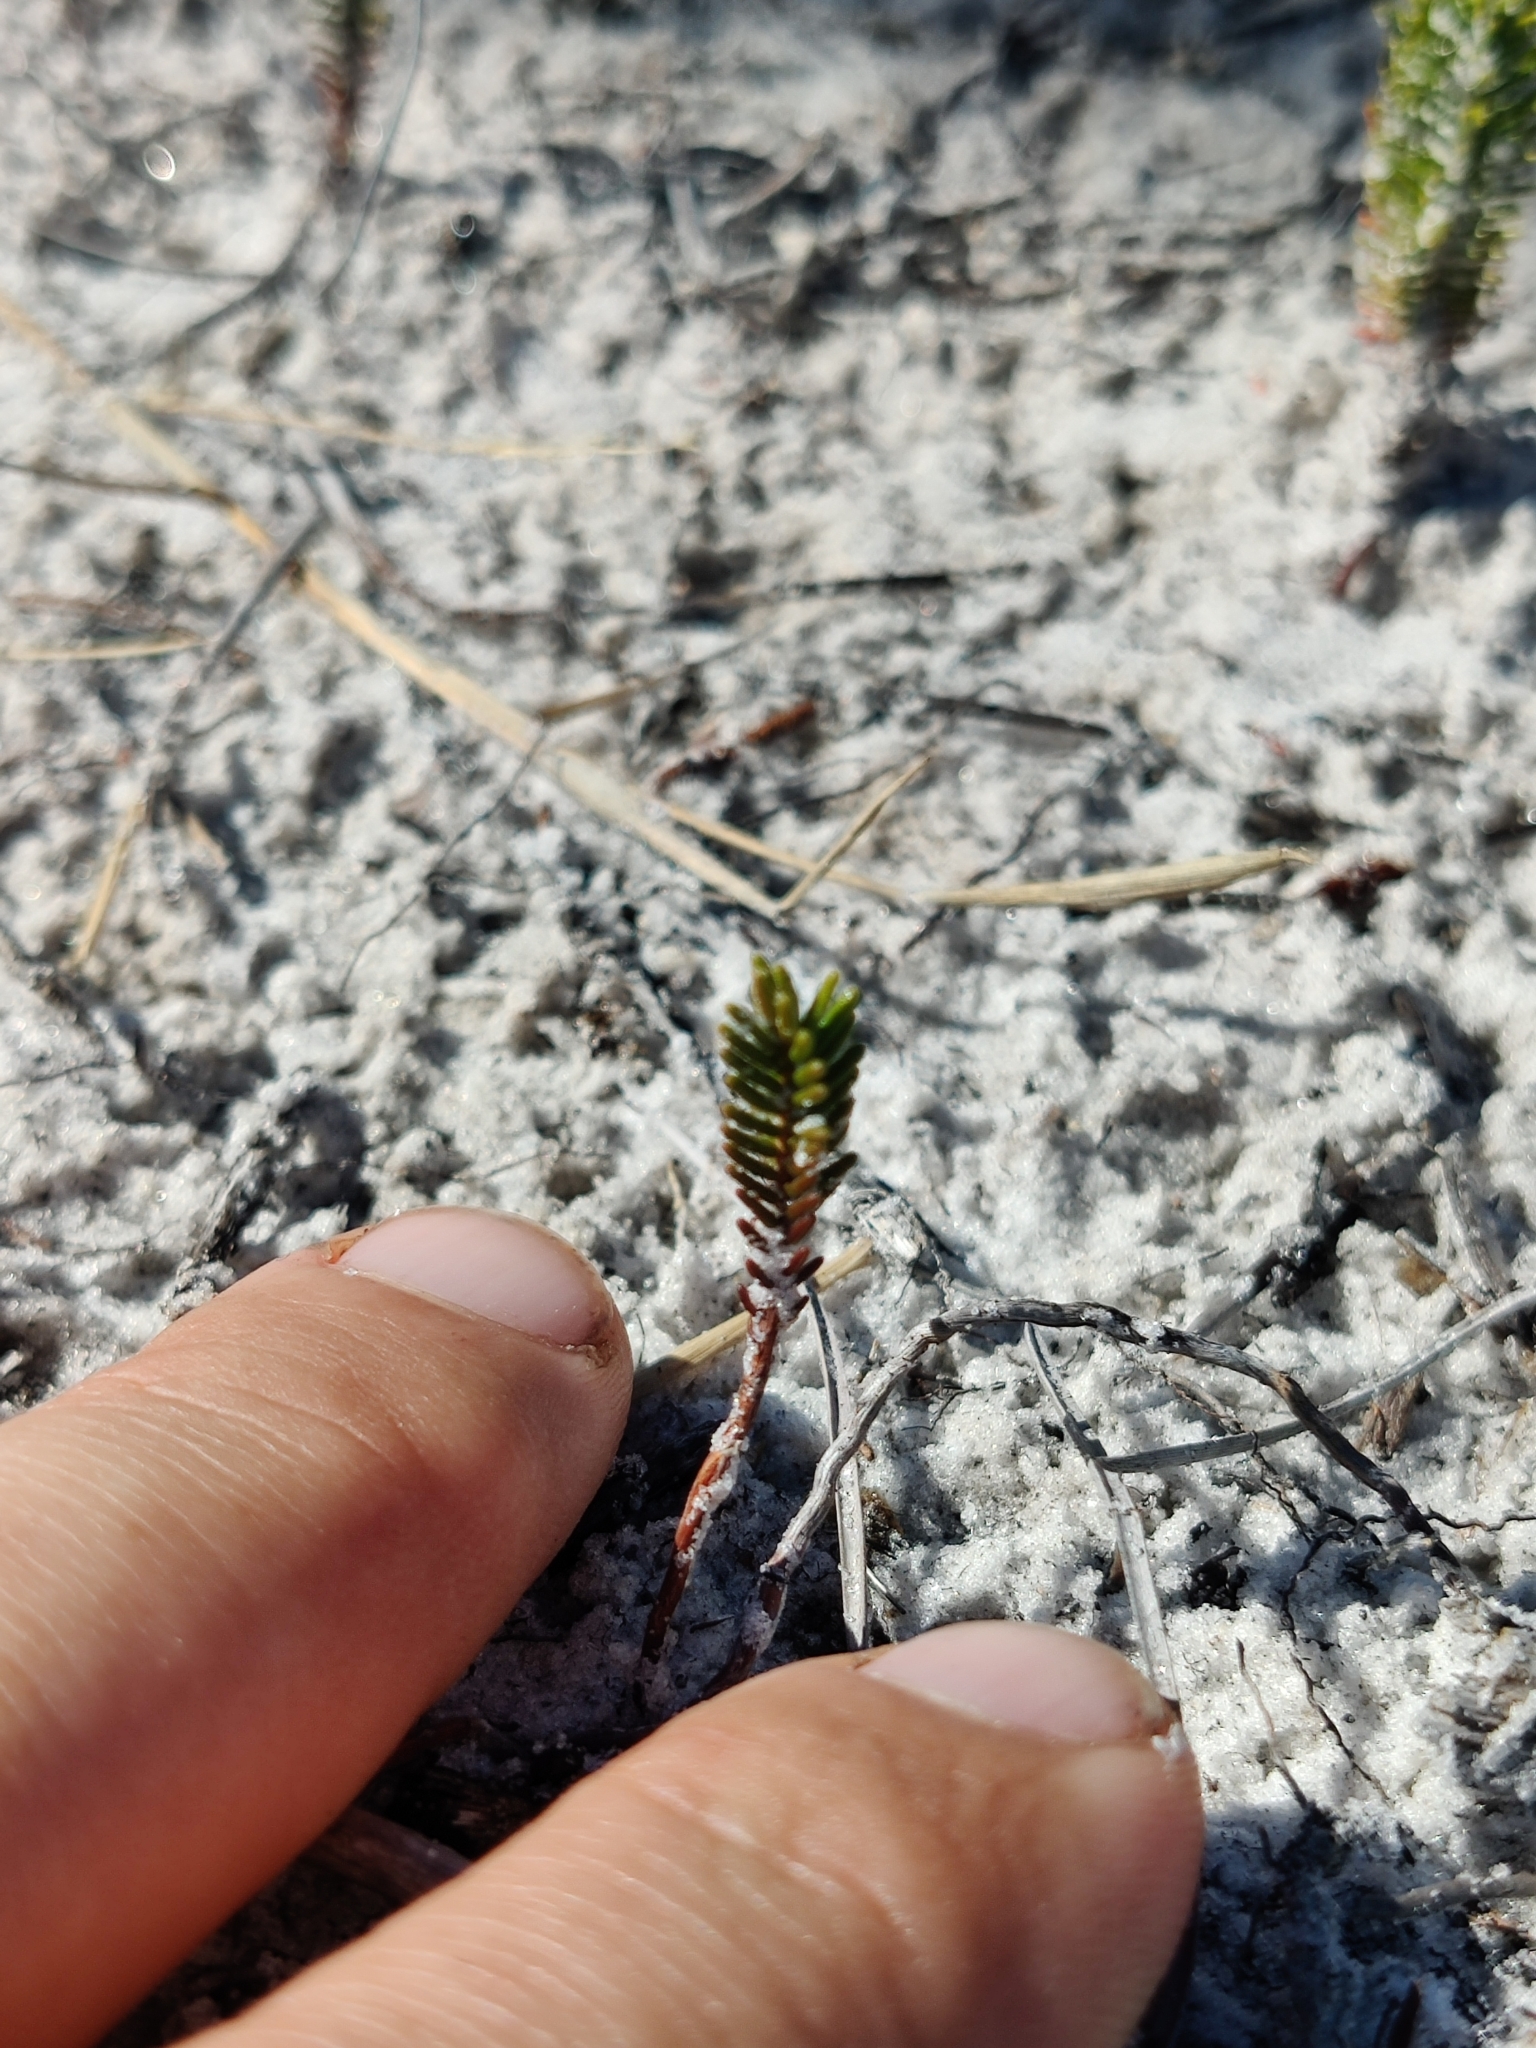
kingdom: Plantae
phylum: Tracheophyta
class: Magnoliopsida
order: Ericales
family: Ericaceae
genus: Ceratiola
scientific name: Ceratiola ericoides
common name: Sandhill-rosemary
